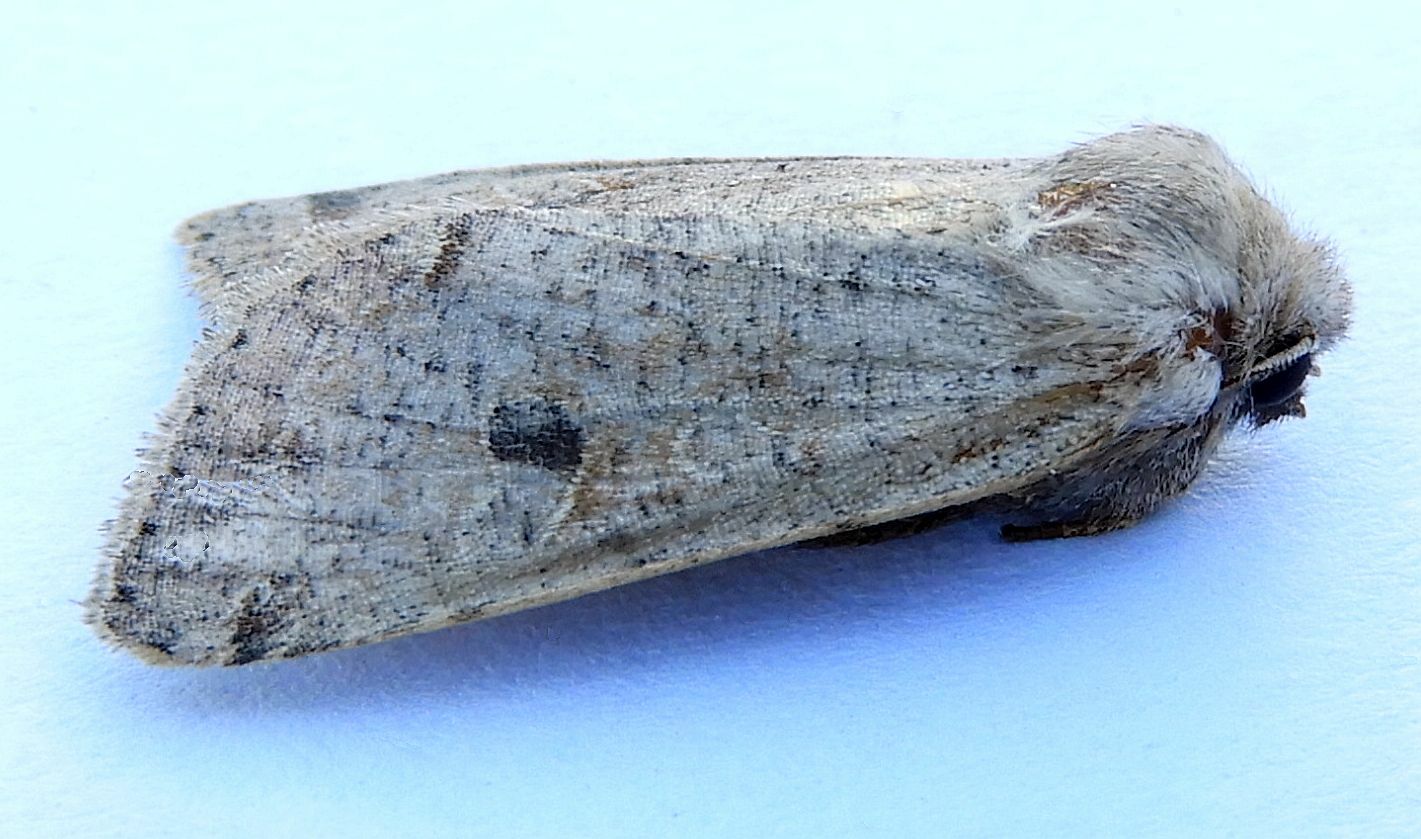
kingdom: Animalia
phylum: Arthropoda
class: Insecta
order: Lepidoptera
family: Noctuidae
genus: Orthosia
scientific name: Orthosia hibisci
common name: Green fruitworm
